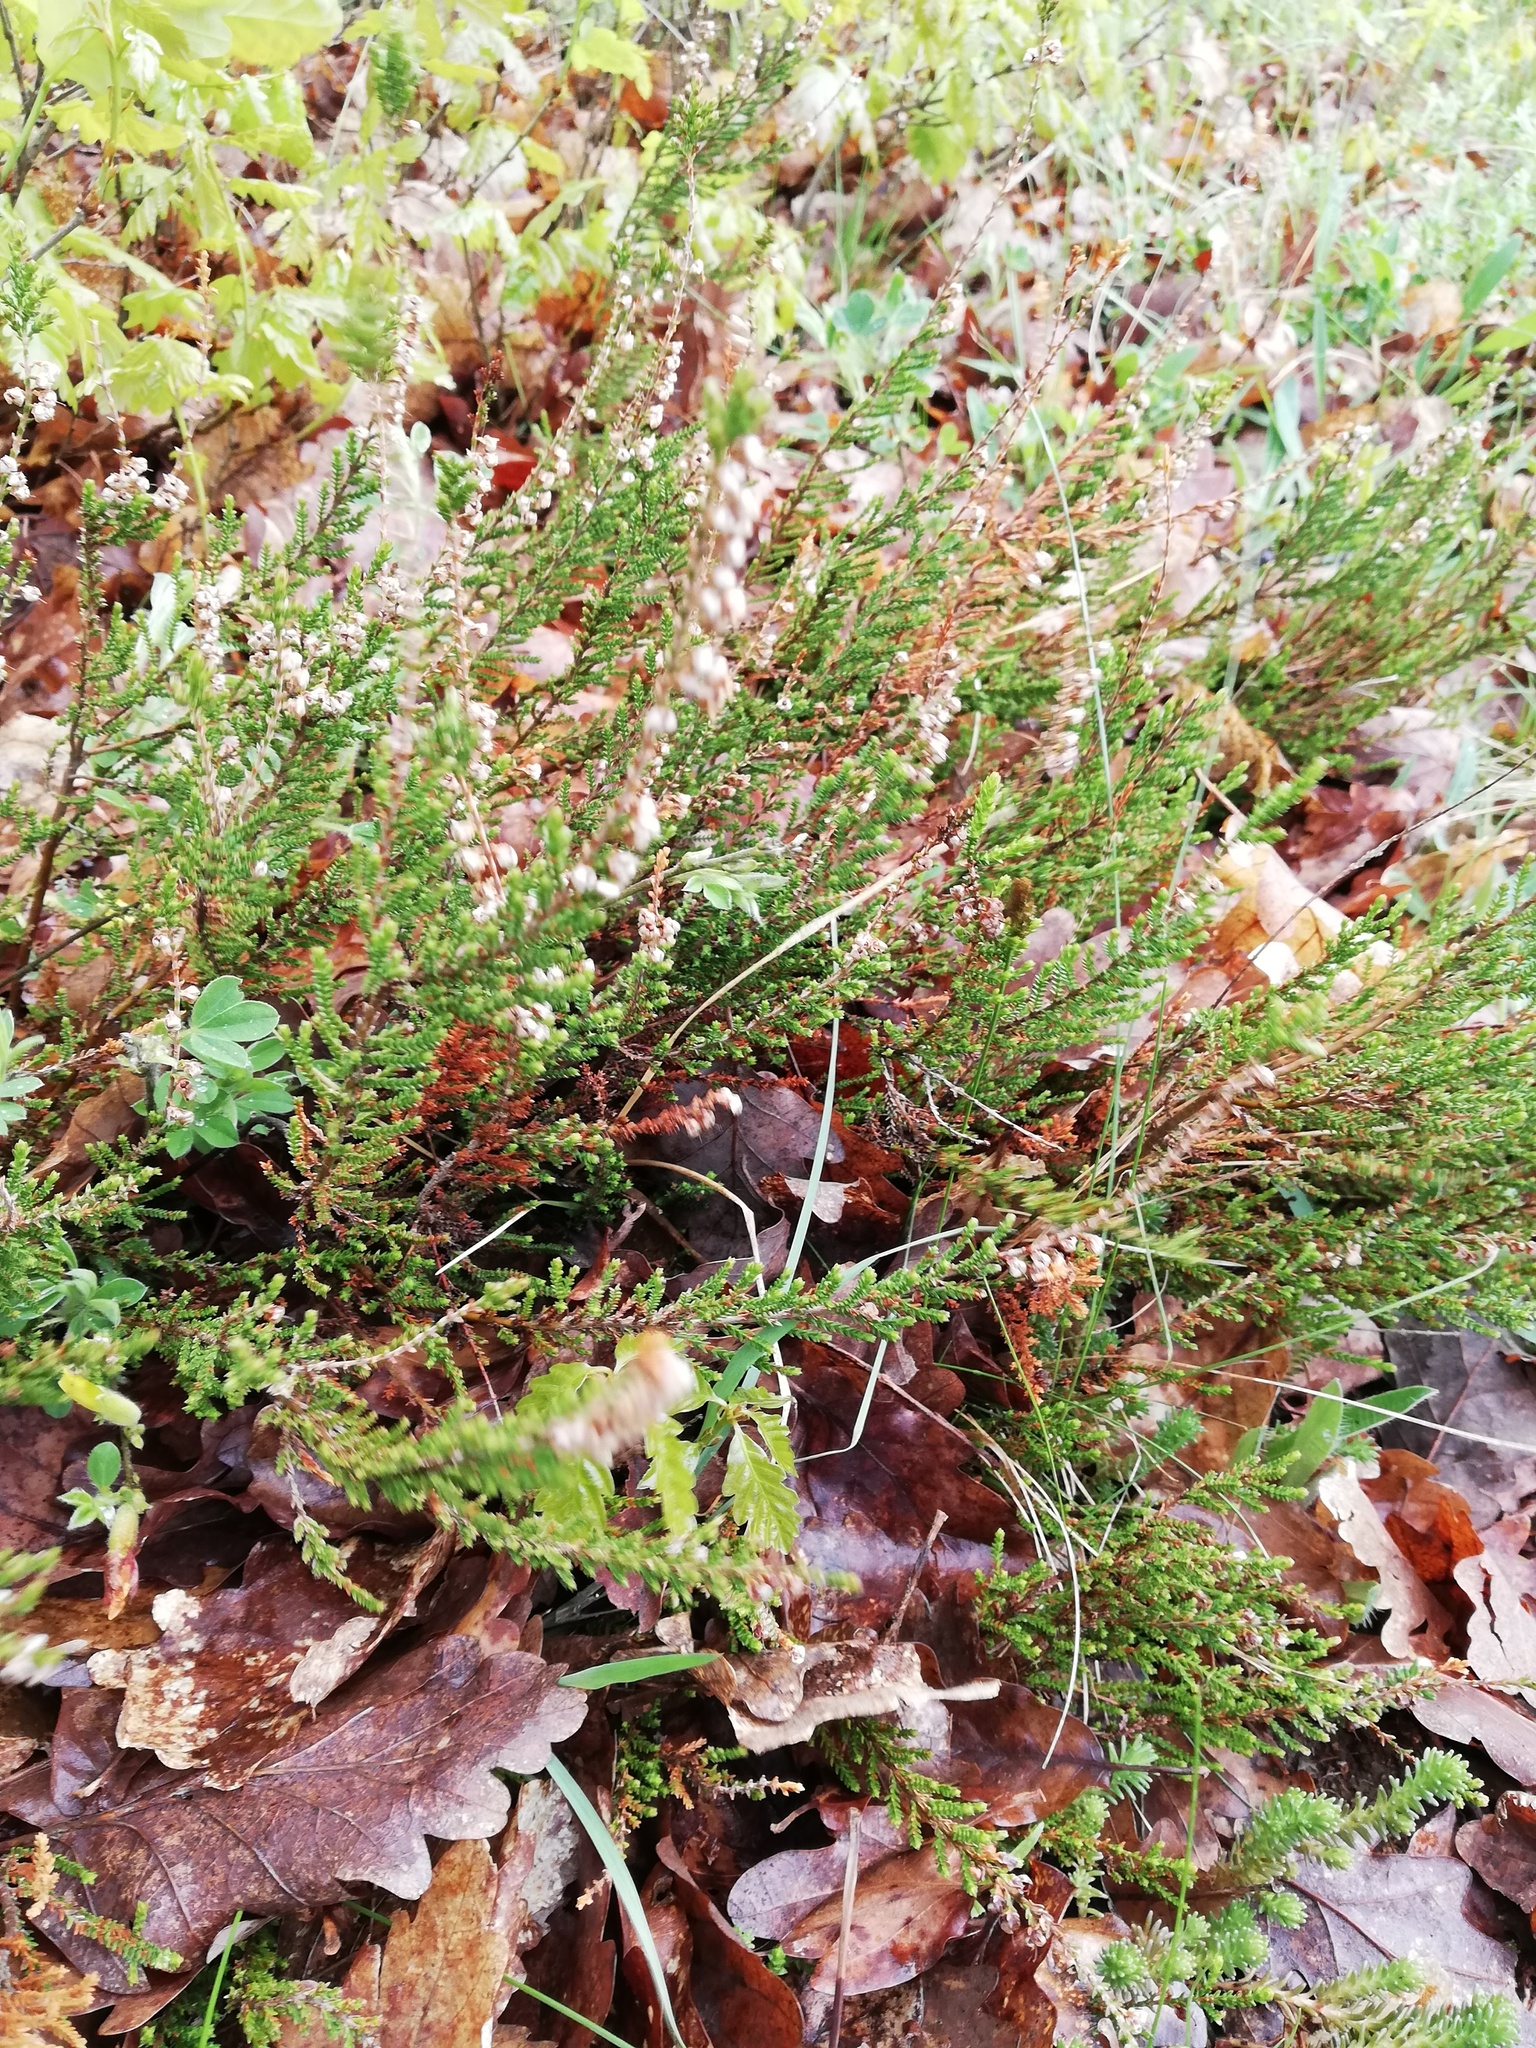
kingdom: Plantae
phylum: Tracheophyta
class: Magnoliopsida
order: Ericales
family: Ericaceae
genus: Calluna
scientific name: Calluna vulgaris
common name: Heather
